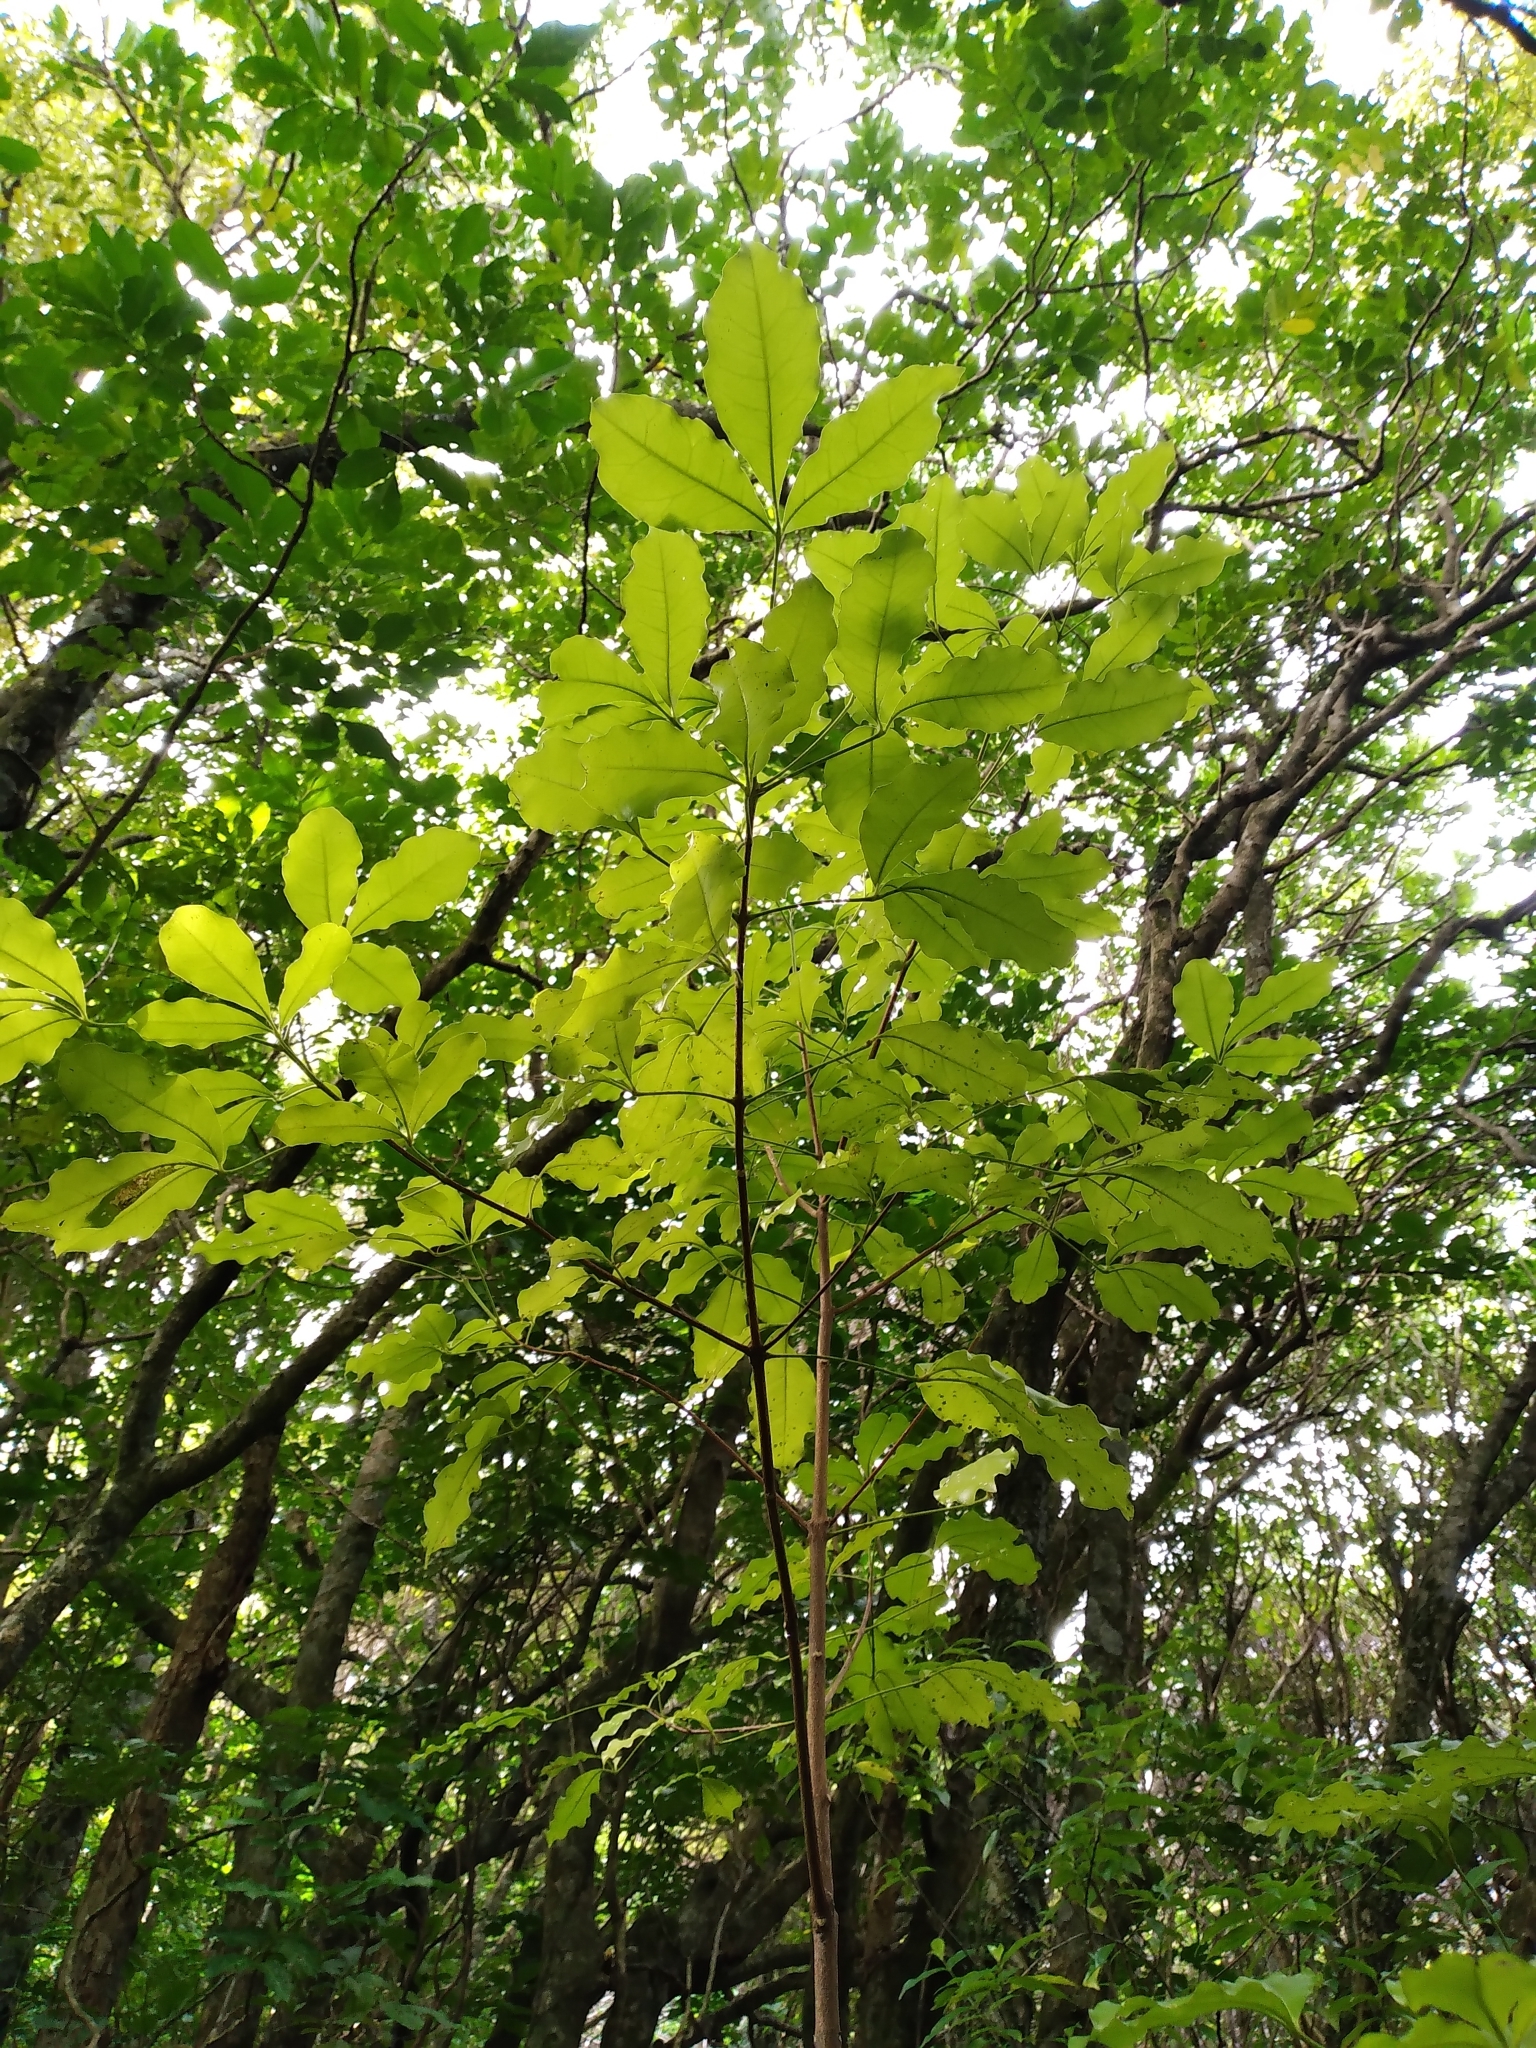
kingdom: Plantae
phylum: Tracheophyta
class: Magnoliopsida
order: Sapindales
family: Rutaceae
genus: Melicope
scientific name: Melicope ternata
